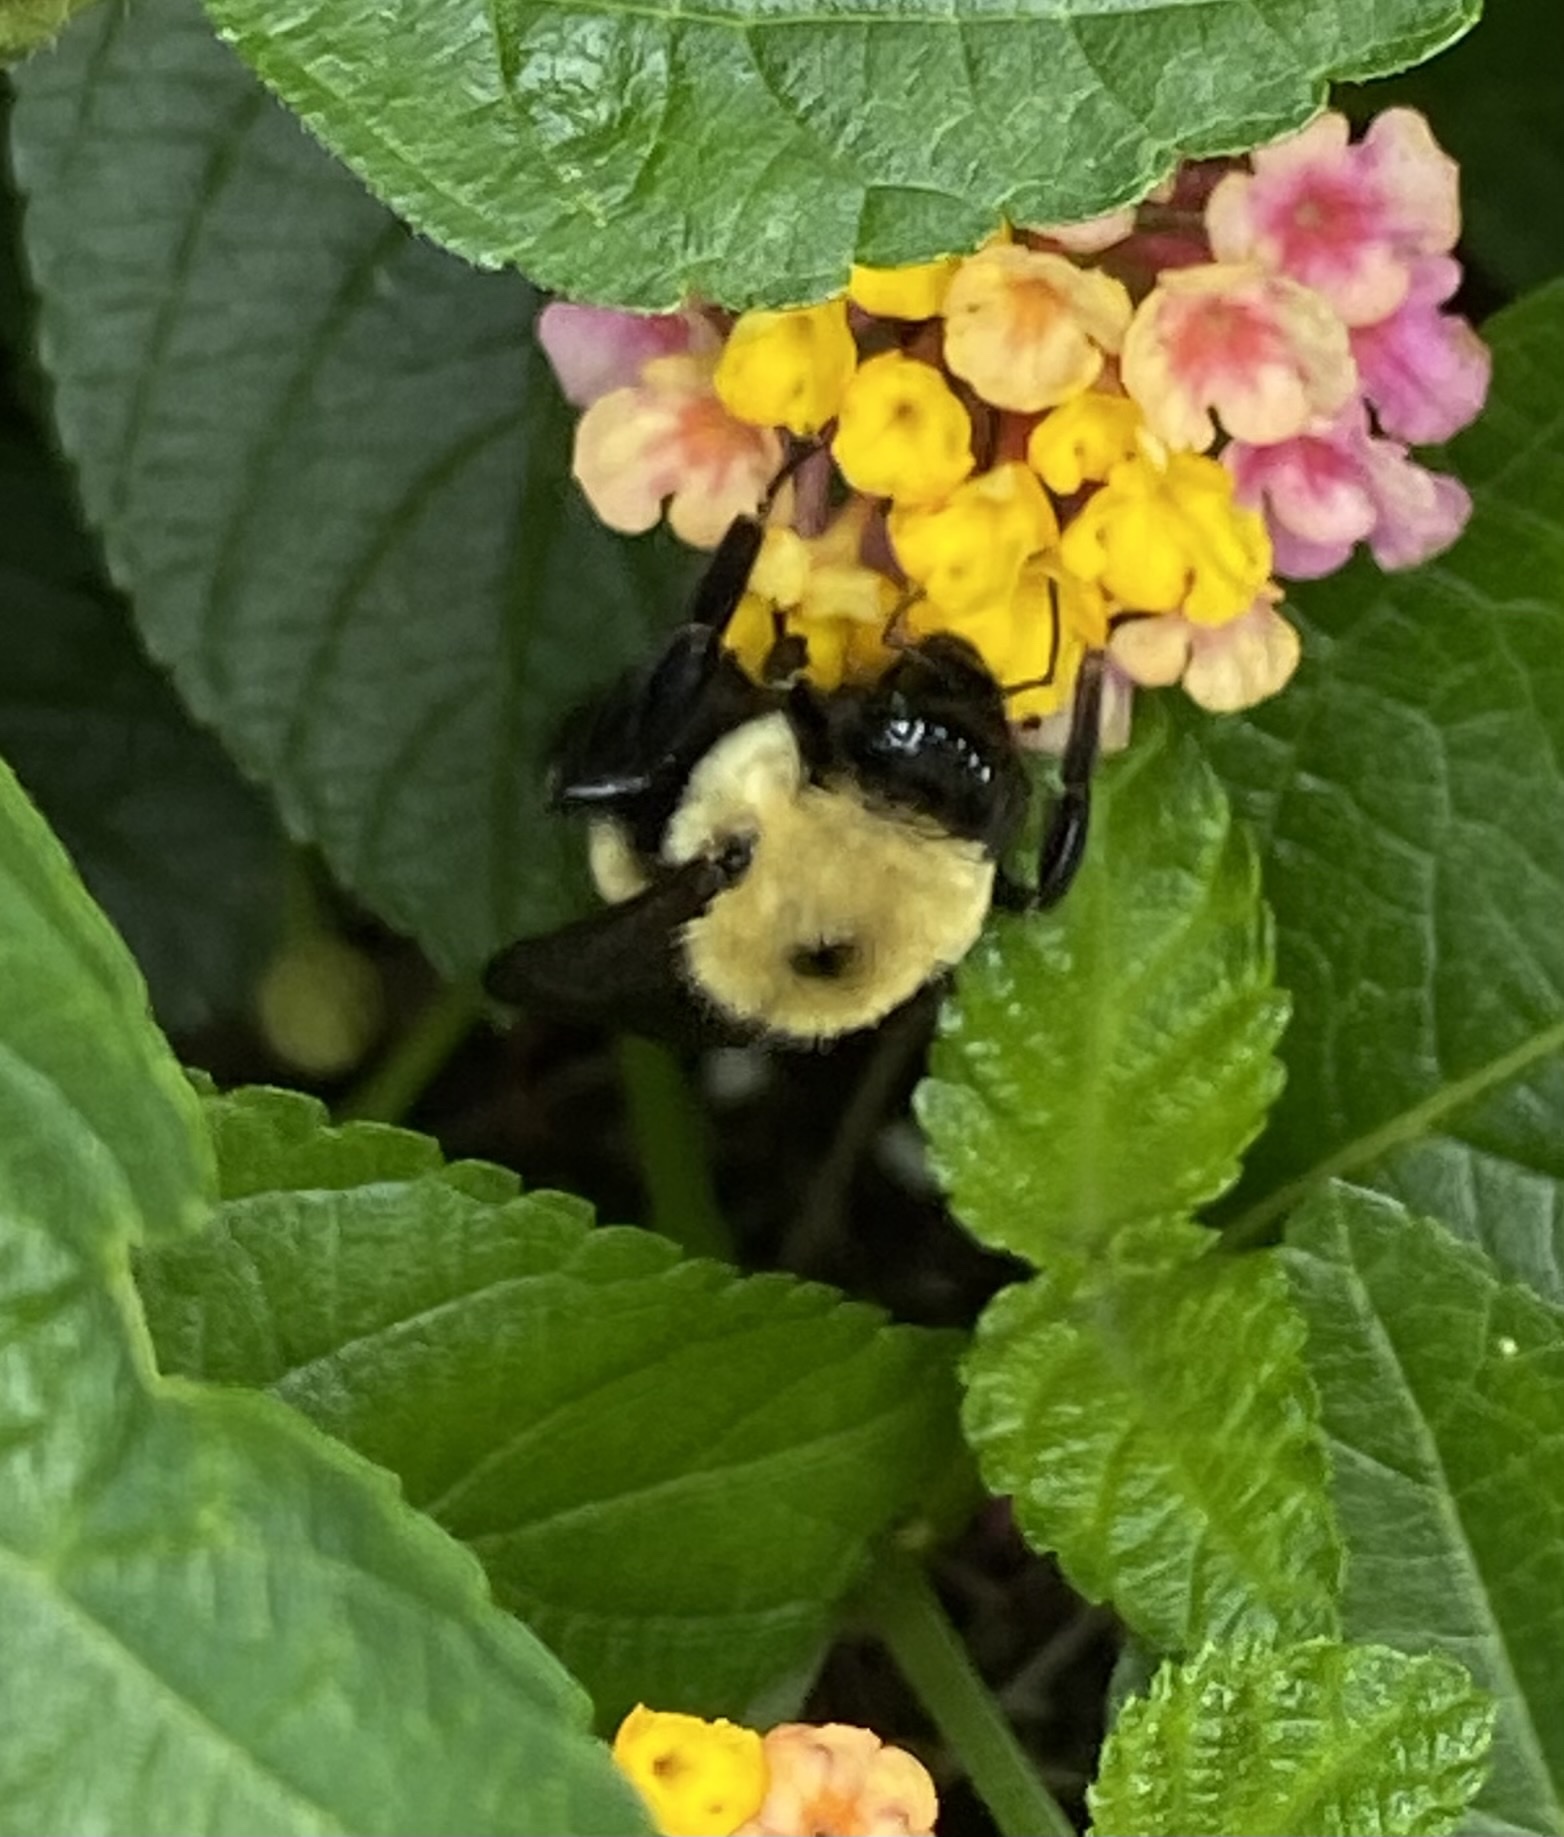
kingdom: Animalia
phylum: Arthropoda
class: Insecta
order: Hymenoptera
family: Apidae
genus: Bombus
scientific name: Bombus griseocollis
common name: Brown-belted bumble bee
